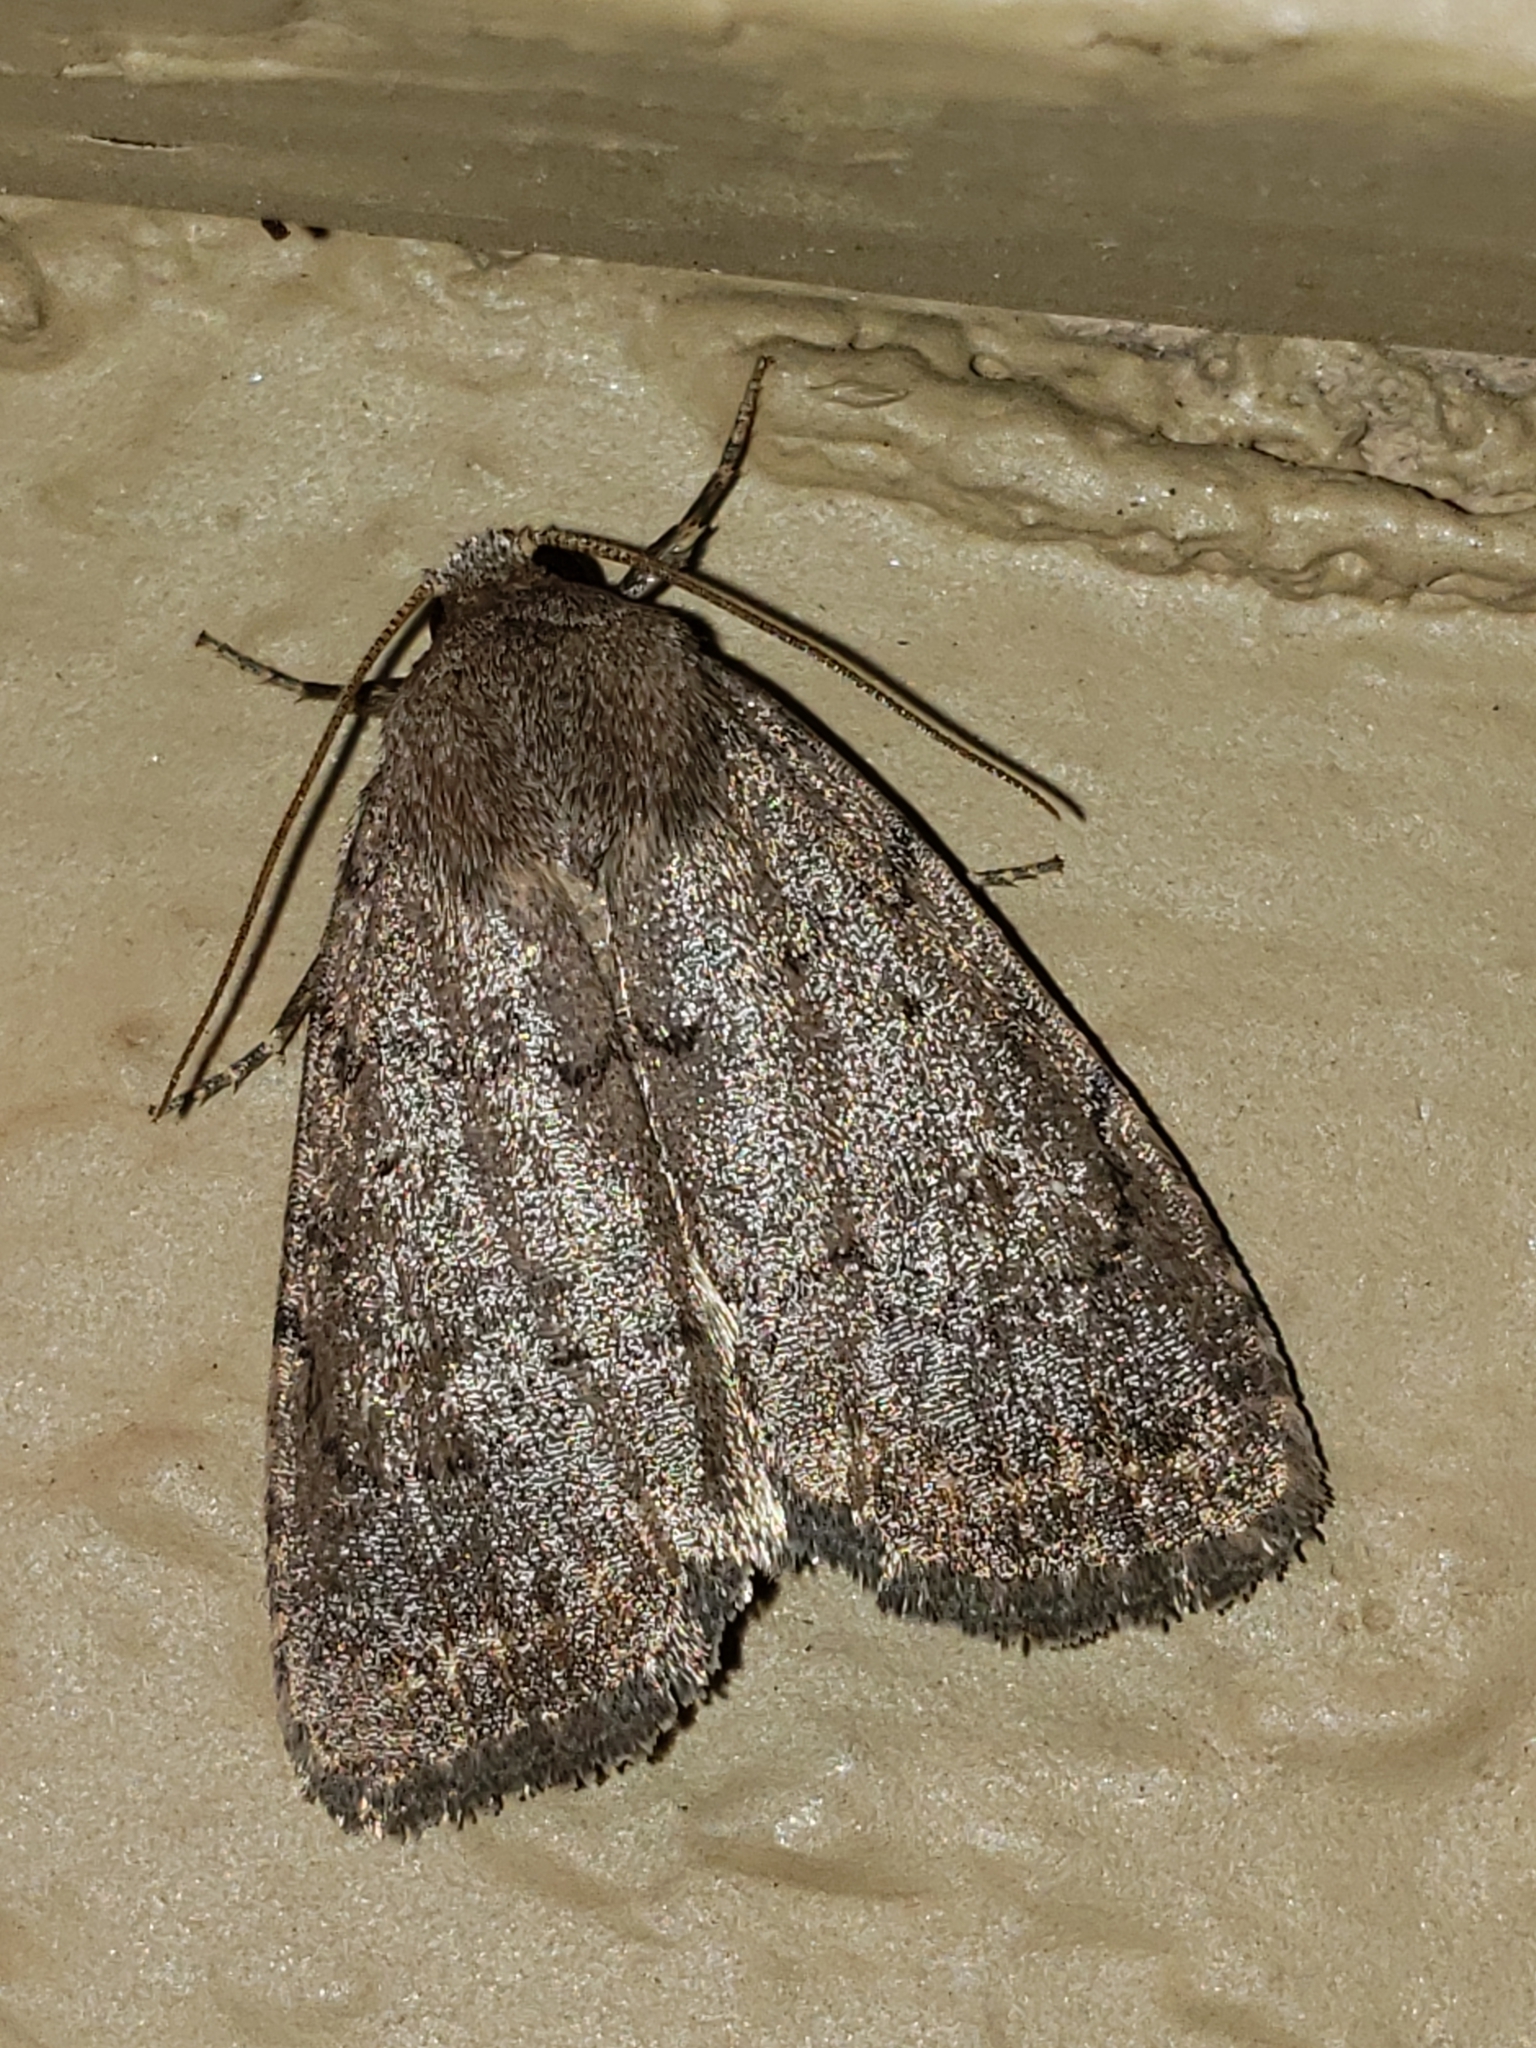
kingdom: Animalia
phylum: Arthropoda
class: Insecta
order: Lepidoptera
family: Noctuidae
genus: Athetis
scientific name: Athetis tarda
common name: Slowpoke moth
